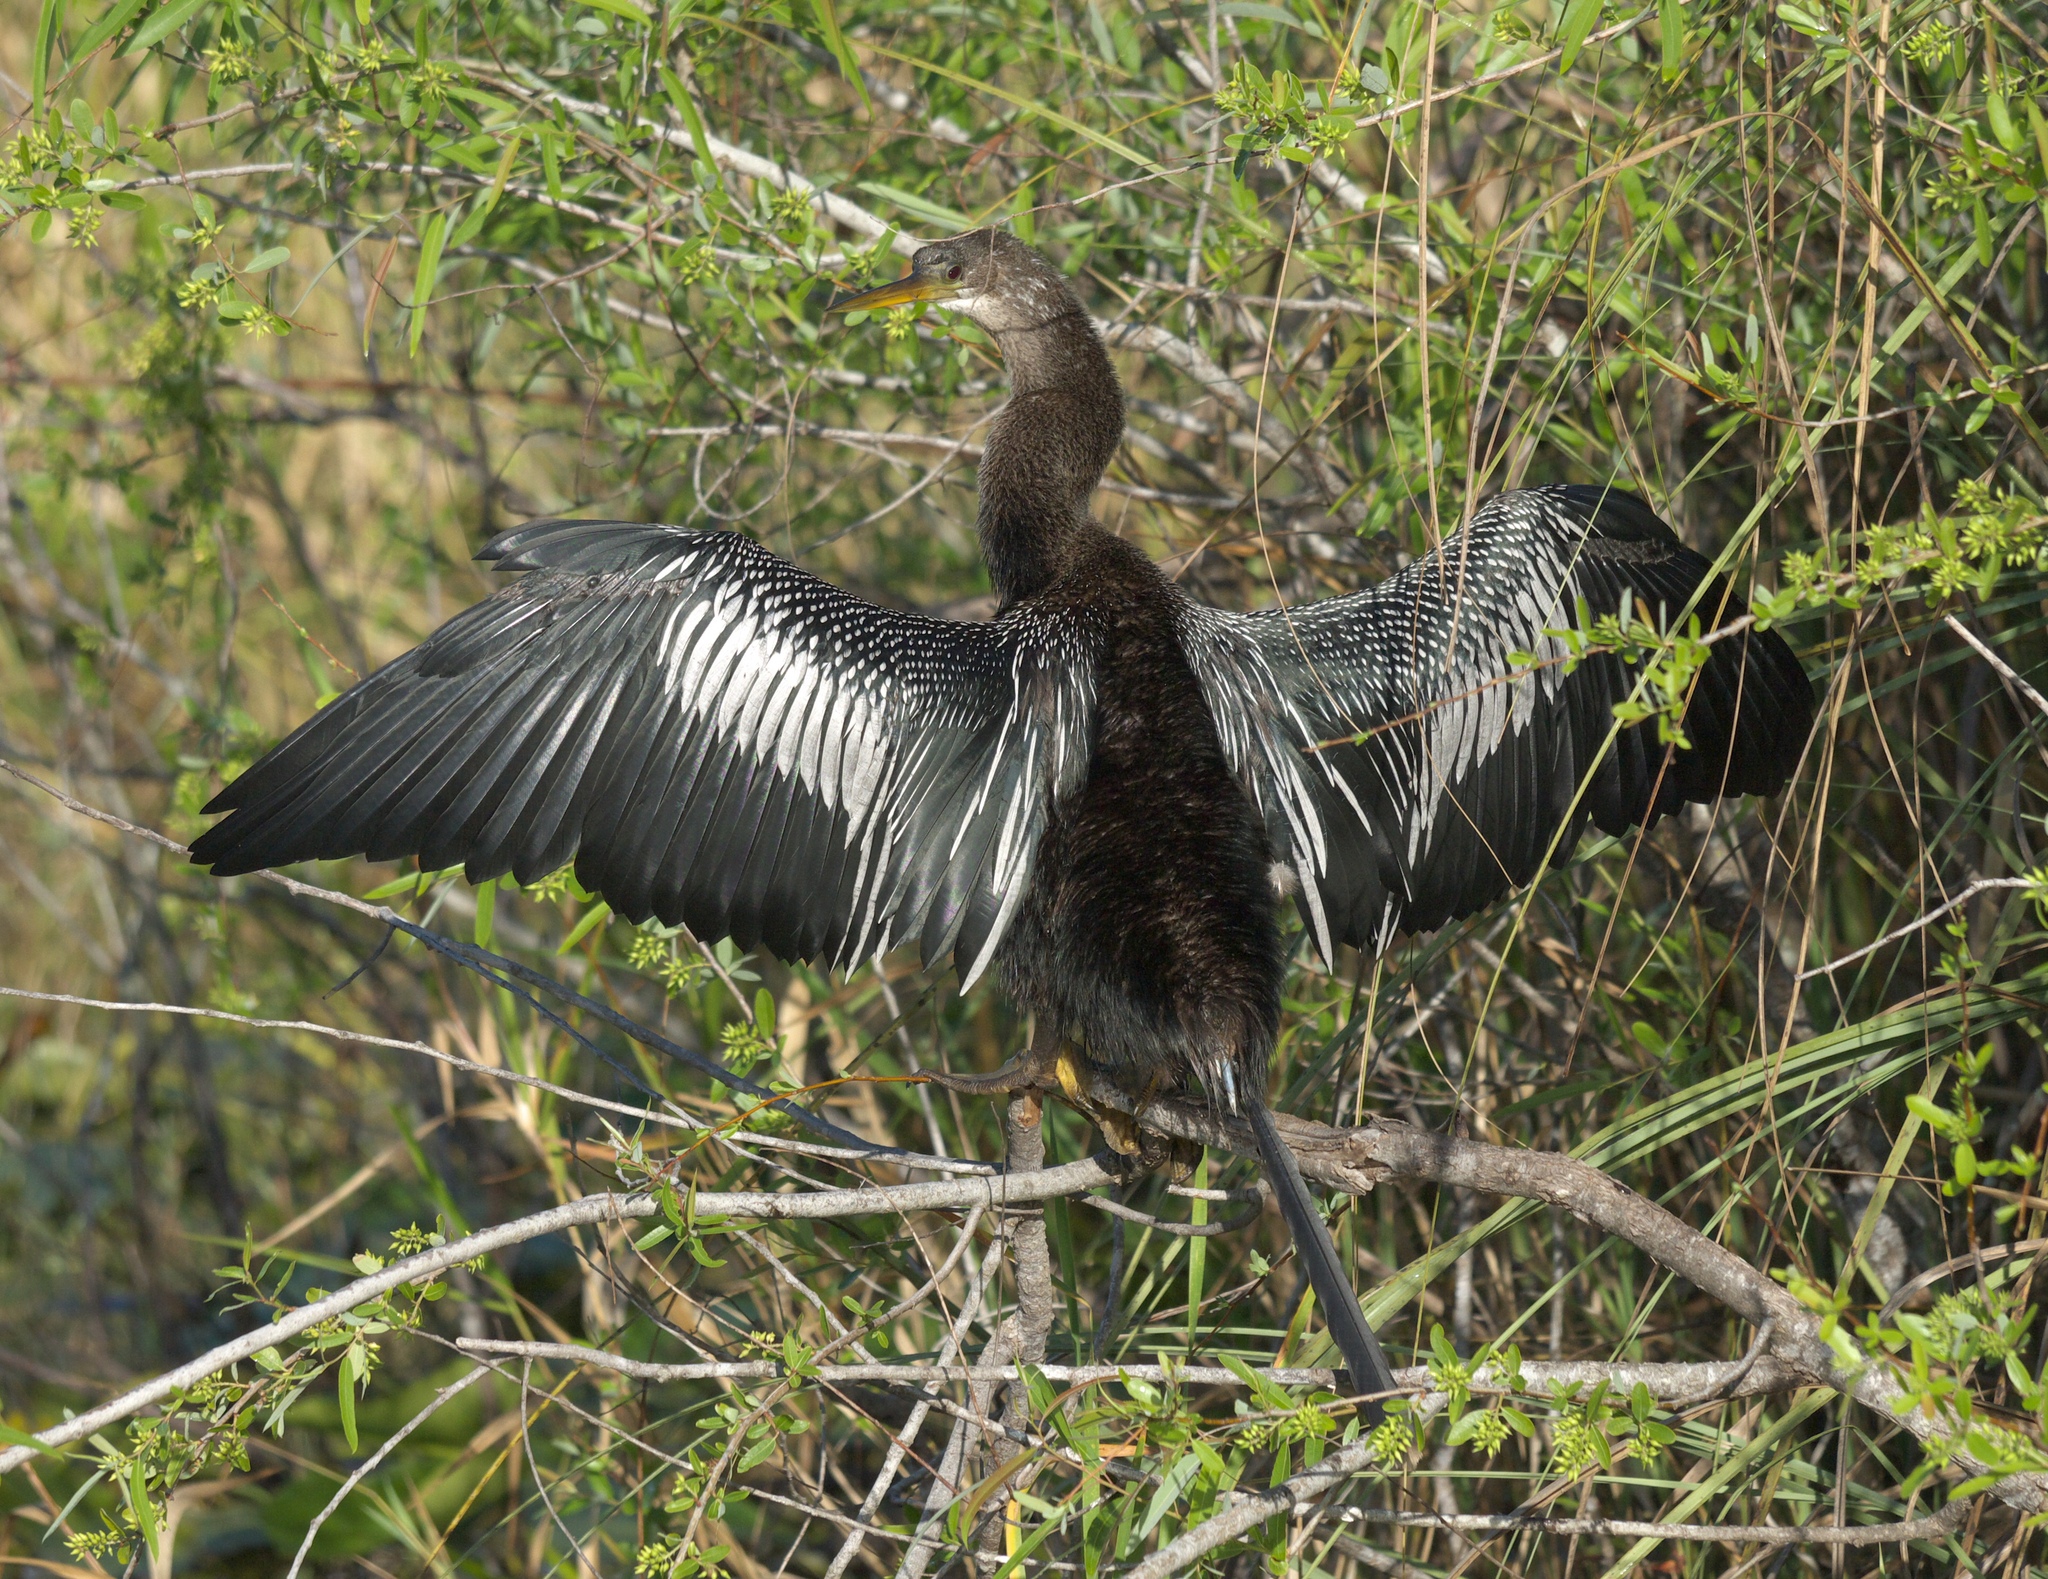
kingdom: Animalia
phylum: Chordata
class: Aves
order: Suliformes
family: Anhingidae
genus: Anhinga
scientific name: Anhinga anhinga
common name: Anhinga
